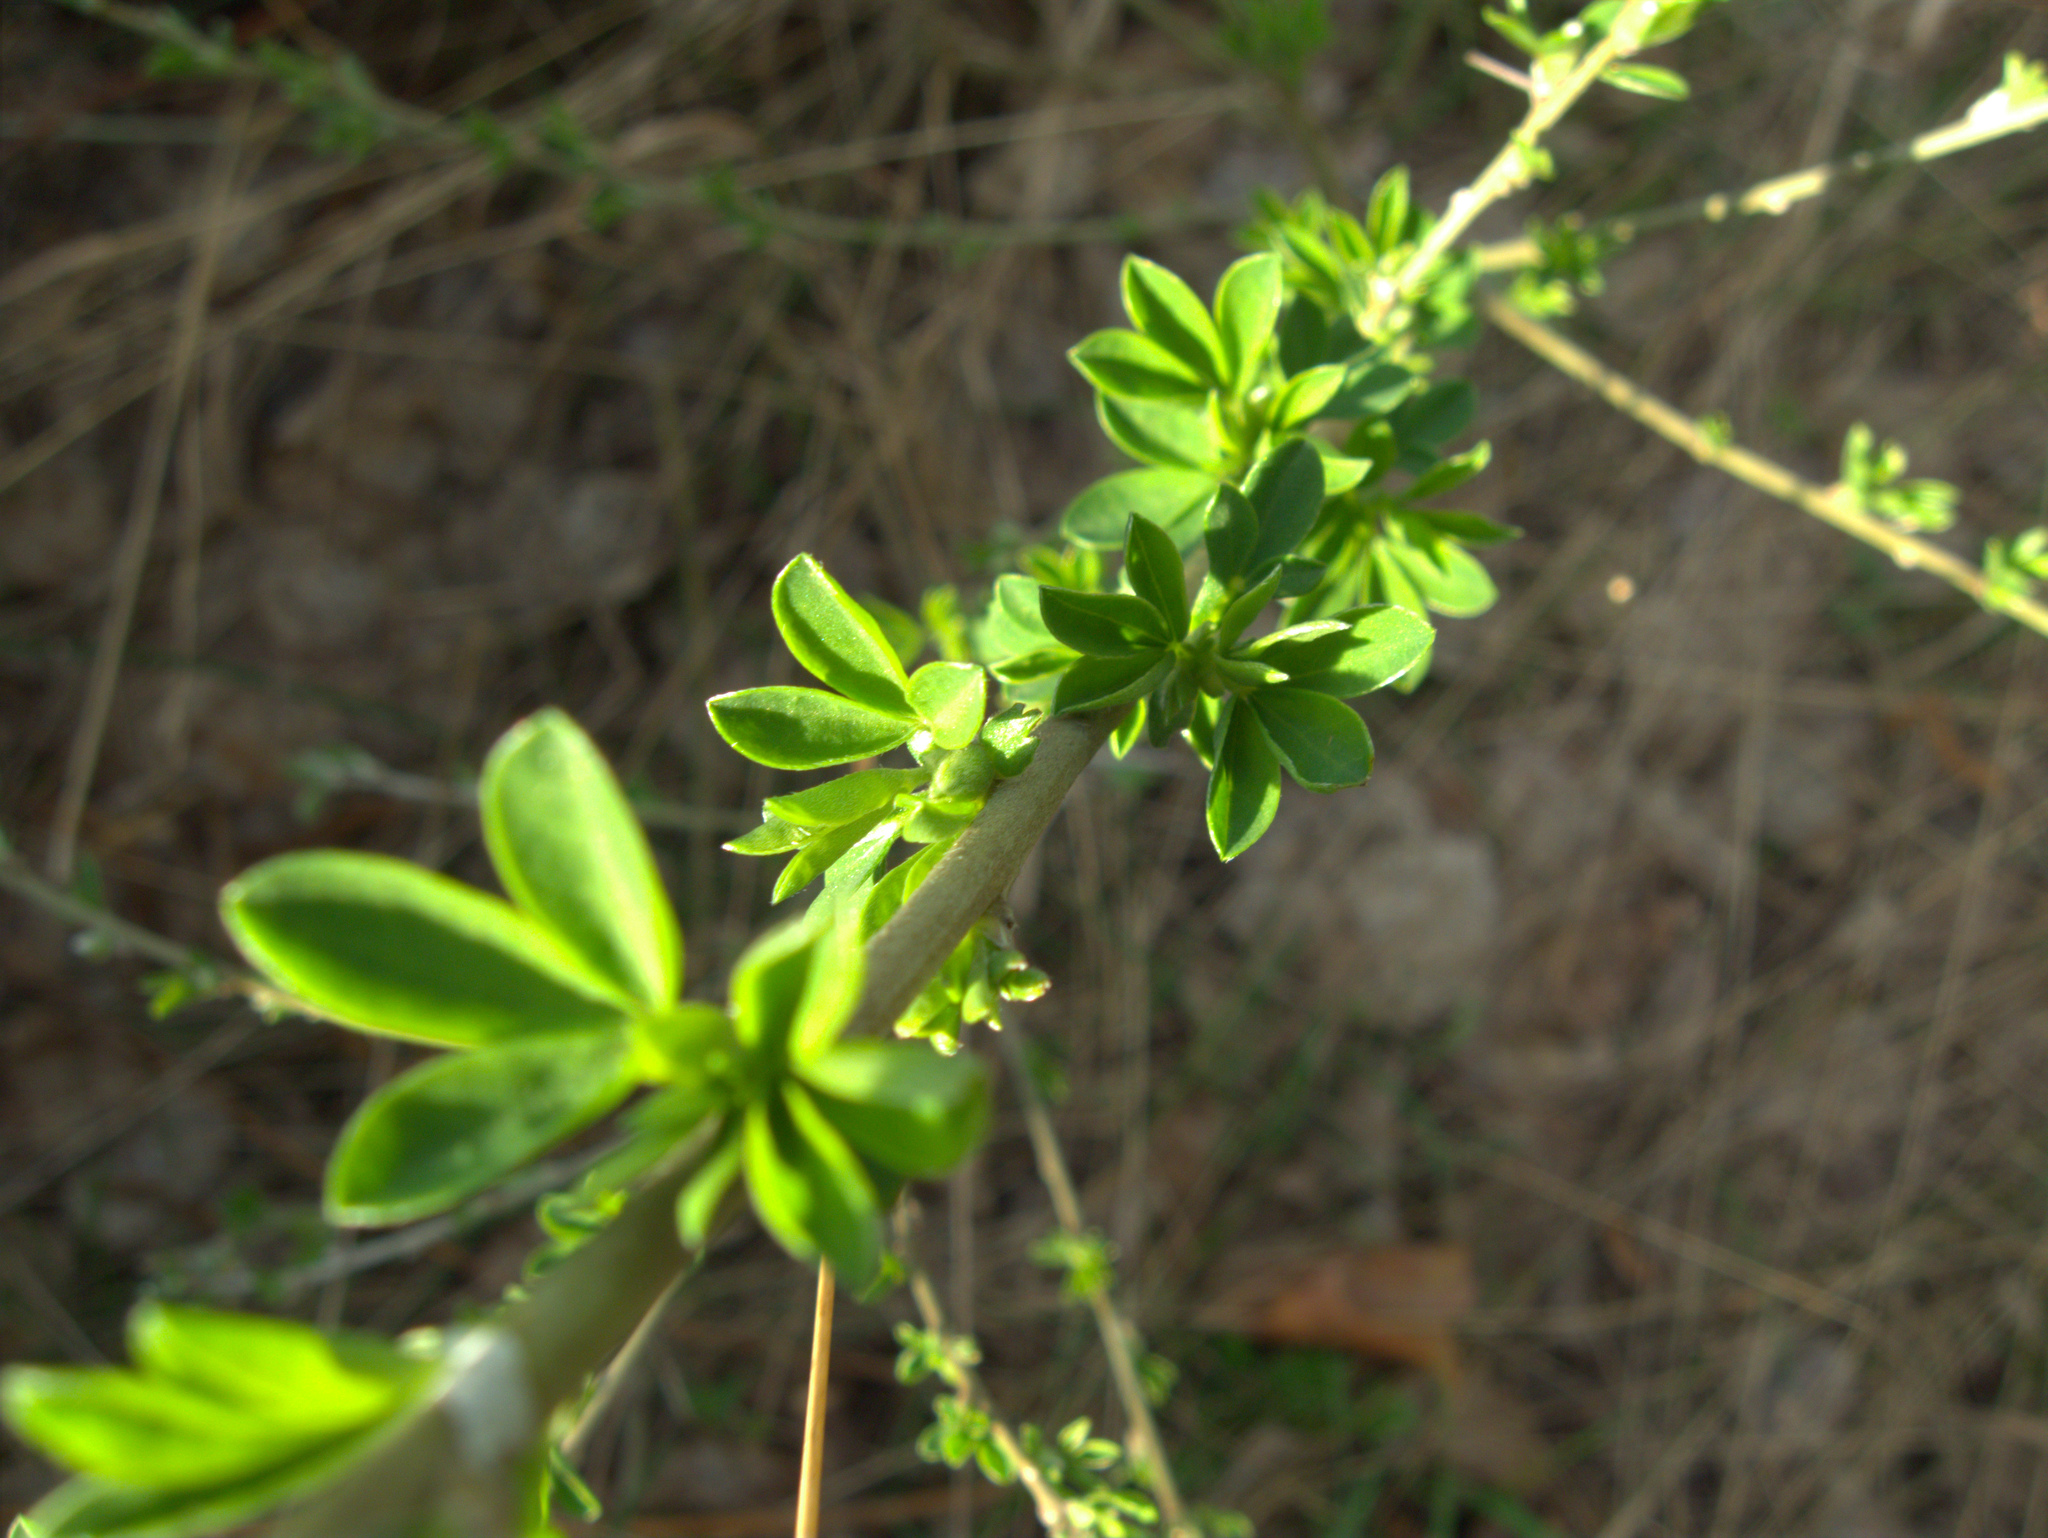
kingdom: Plantae
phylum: Tracheophyta
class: Magnoliopsida
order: Fabales
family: Fabaceae
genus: Chamaecytisus
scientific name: Chamaecytisus ruthenicus
